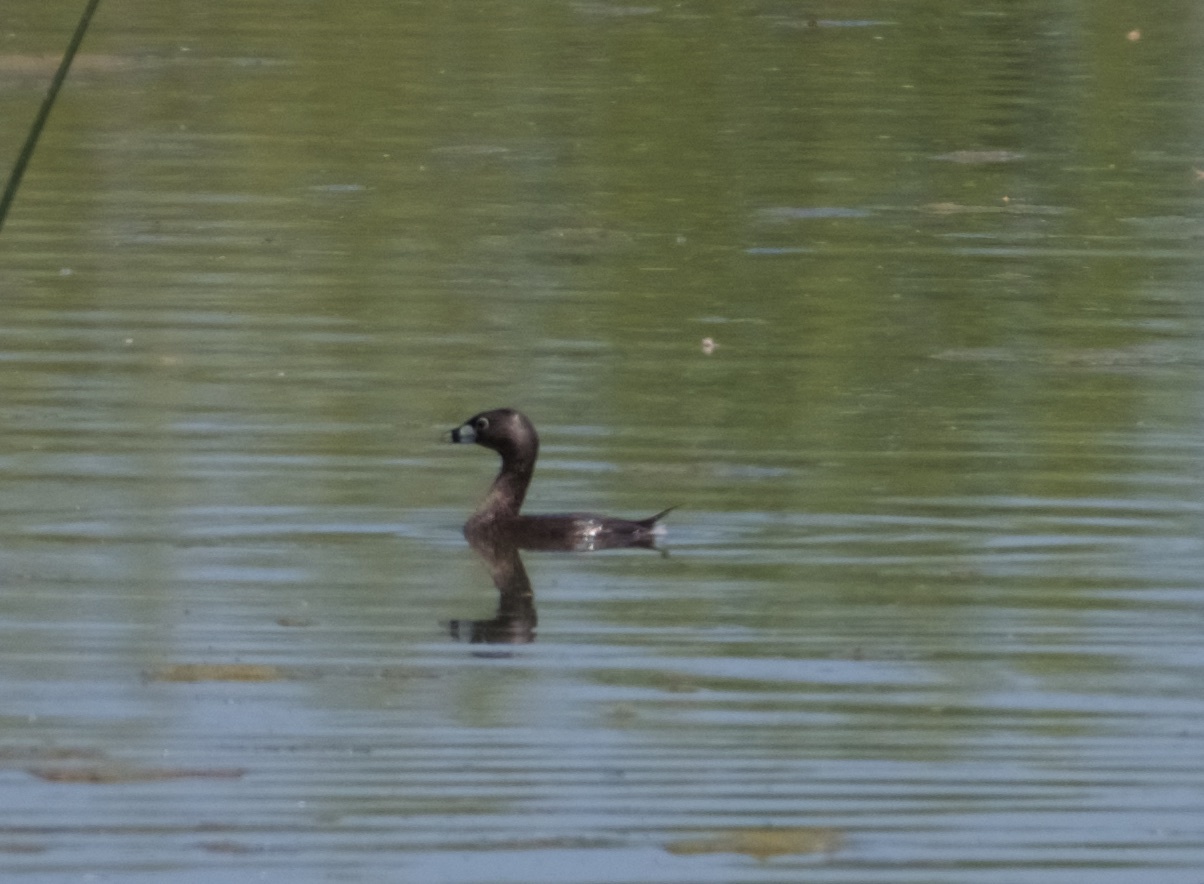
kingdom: Animalia
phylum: Chordata
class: Aves
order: Podicipediformes
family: Podicipedidae
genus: Podilymbus
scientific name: Podilymbus podiceps
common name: Pied-billed grebe
